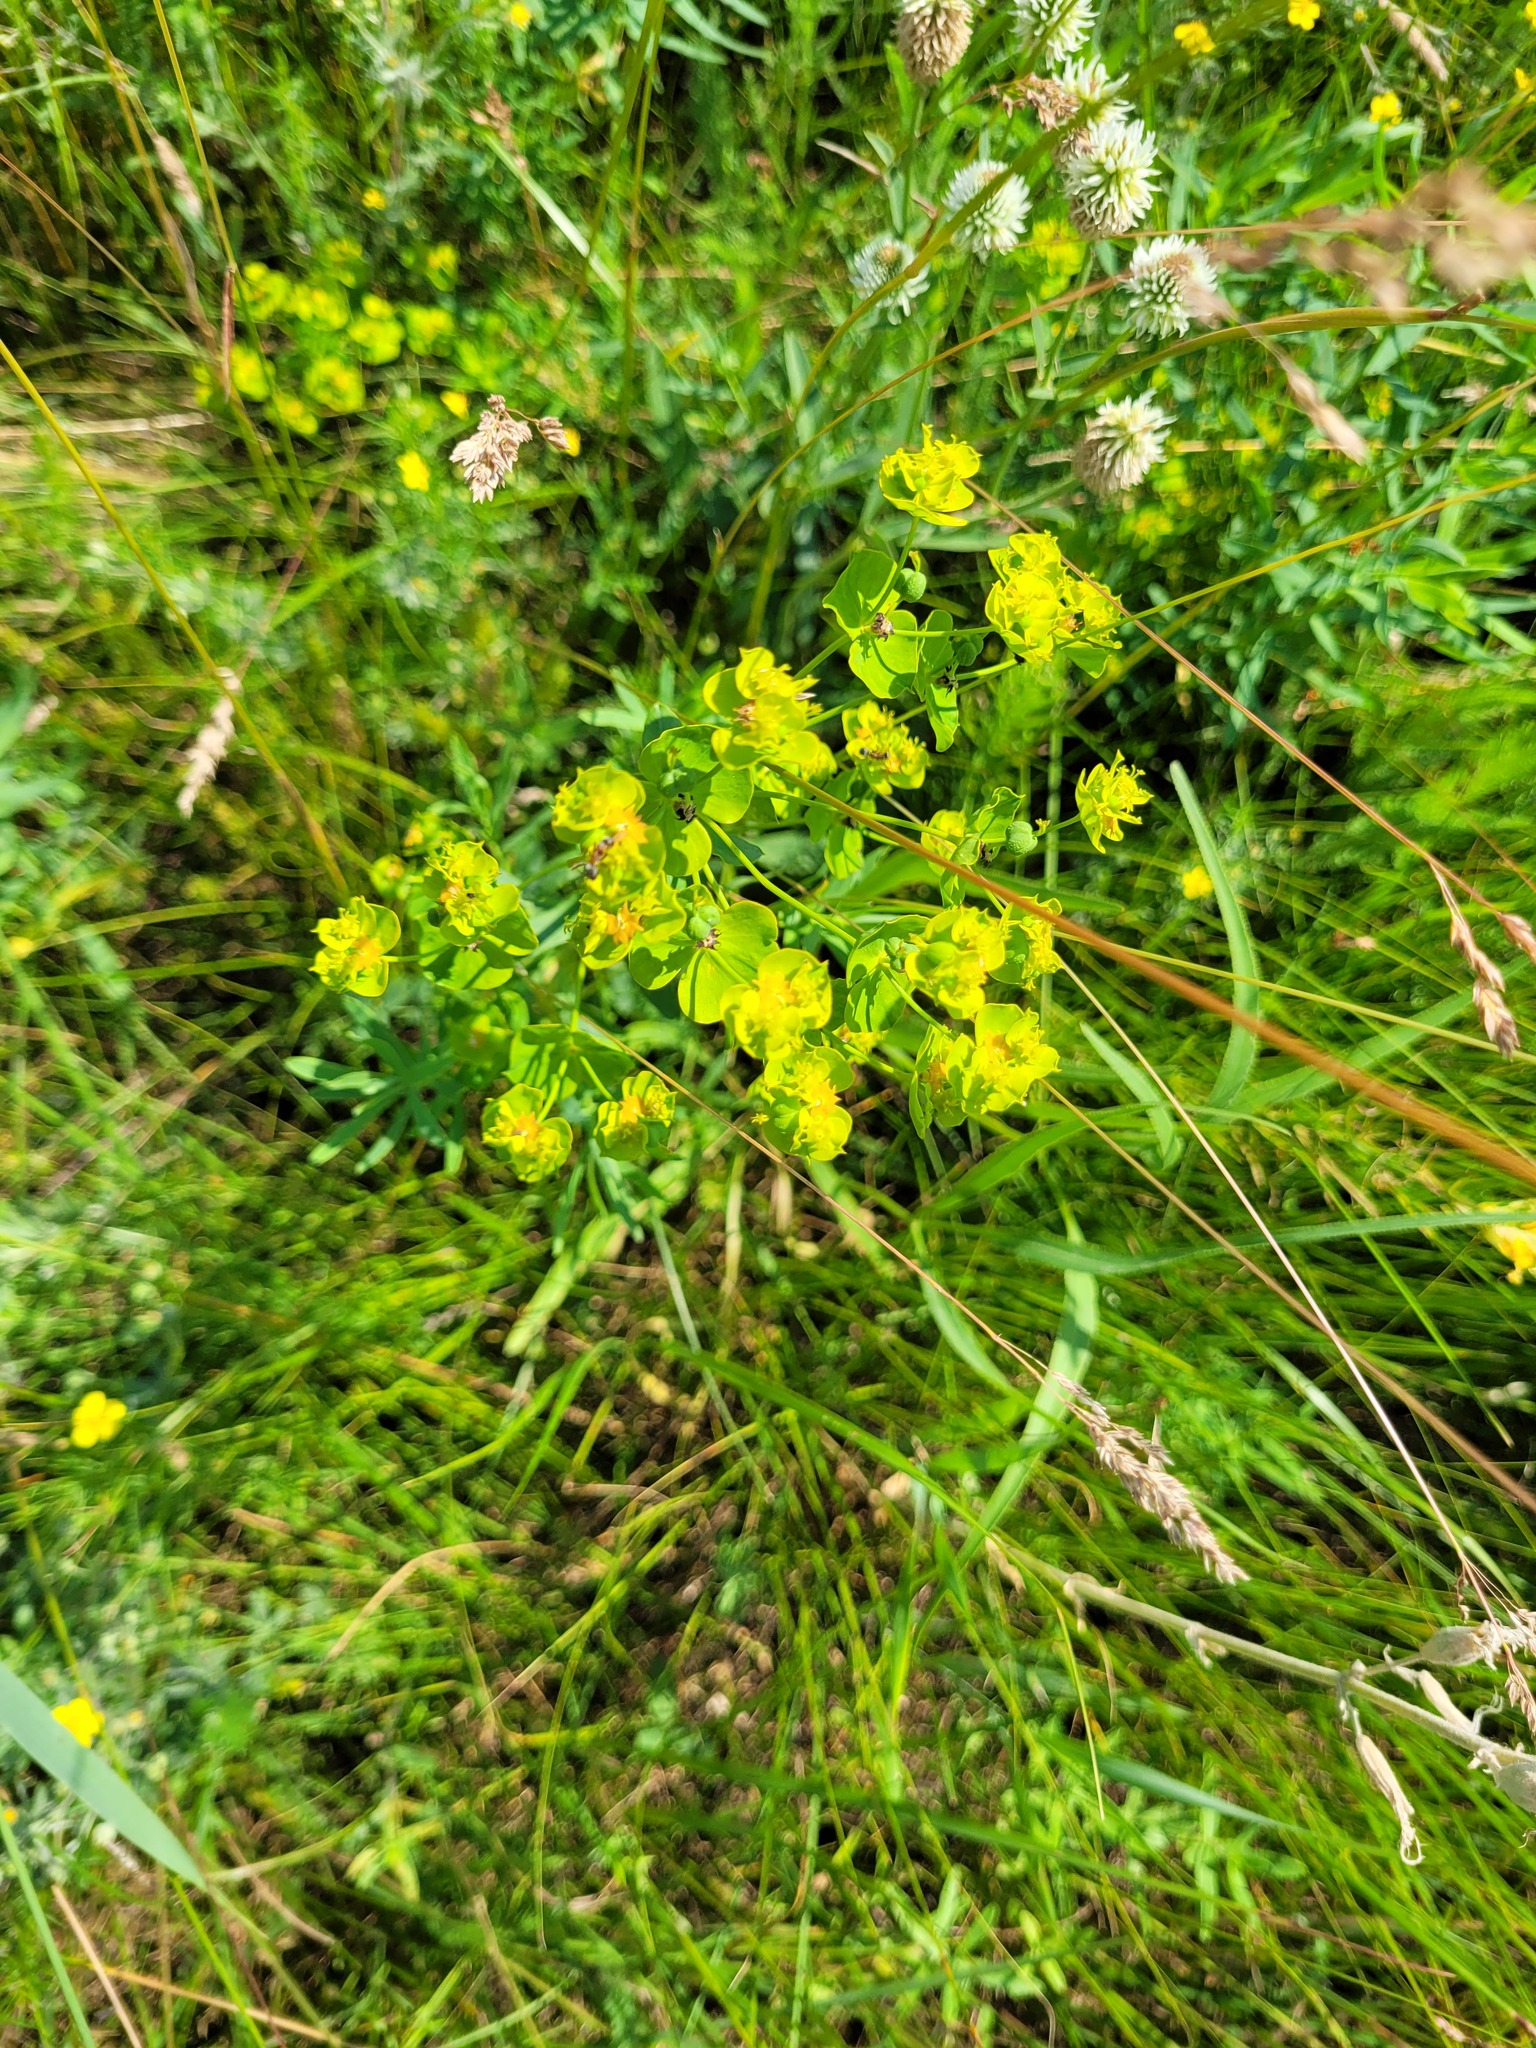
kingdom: Plantae
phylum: Tracheophyta
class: Magnoliopsida
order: Malpighiales
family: Euphorbiaceae
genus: Euphorbia
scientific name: Euphorbia virgata
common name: Leafy spurge
